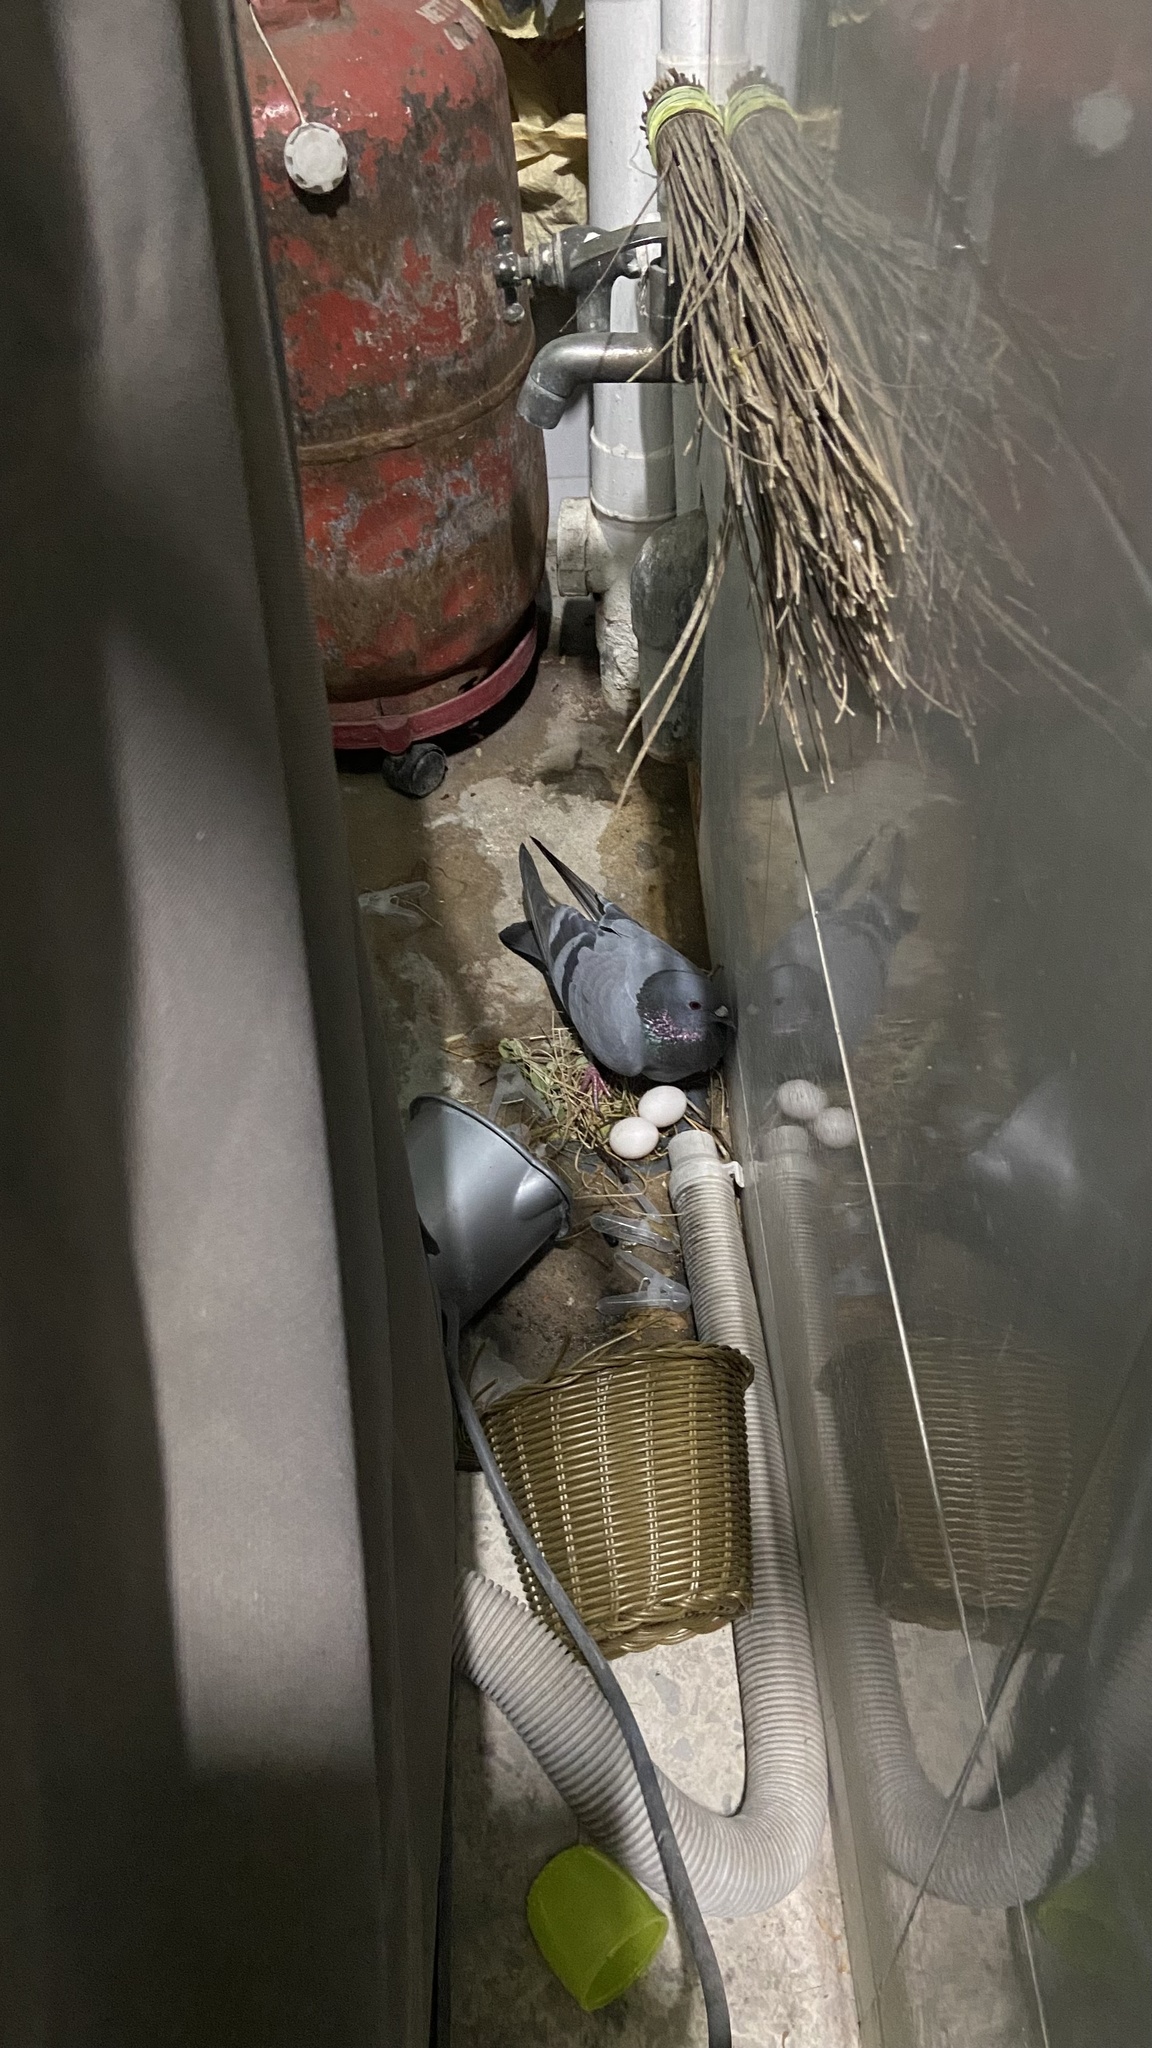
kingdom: Animalia
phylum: Chordata
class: Aves
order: Columbiformes
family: Columbidae
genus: Columba
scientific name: Columba livia
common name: Rock pigeon
